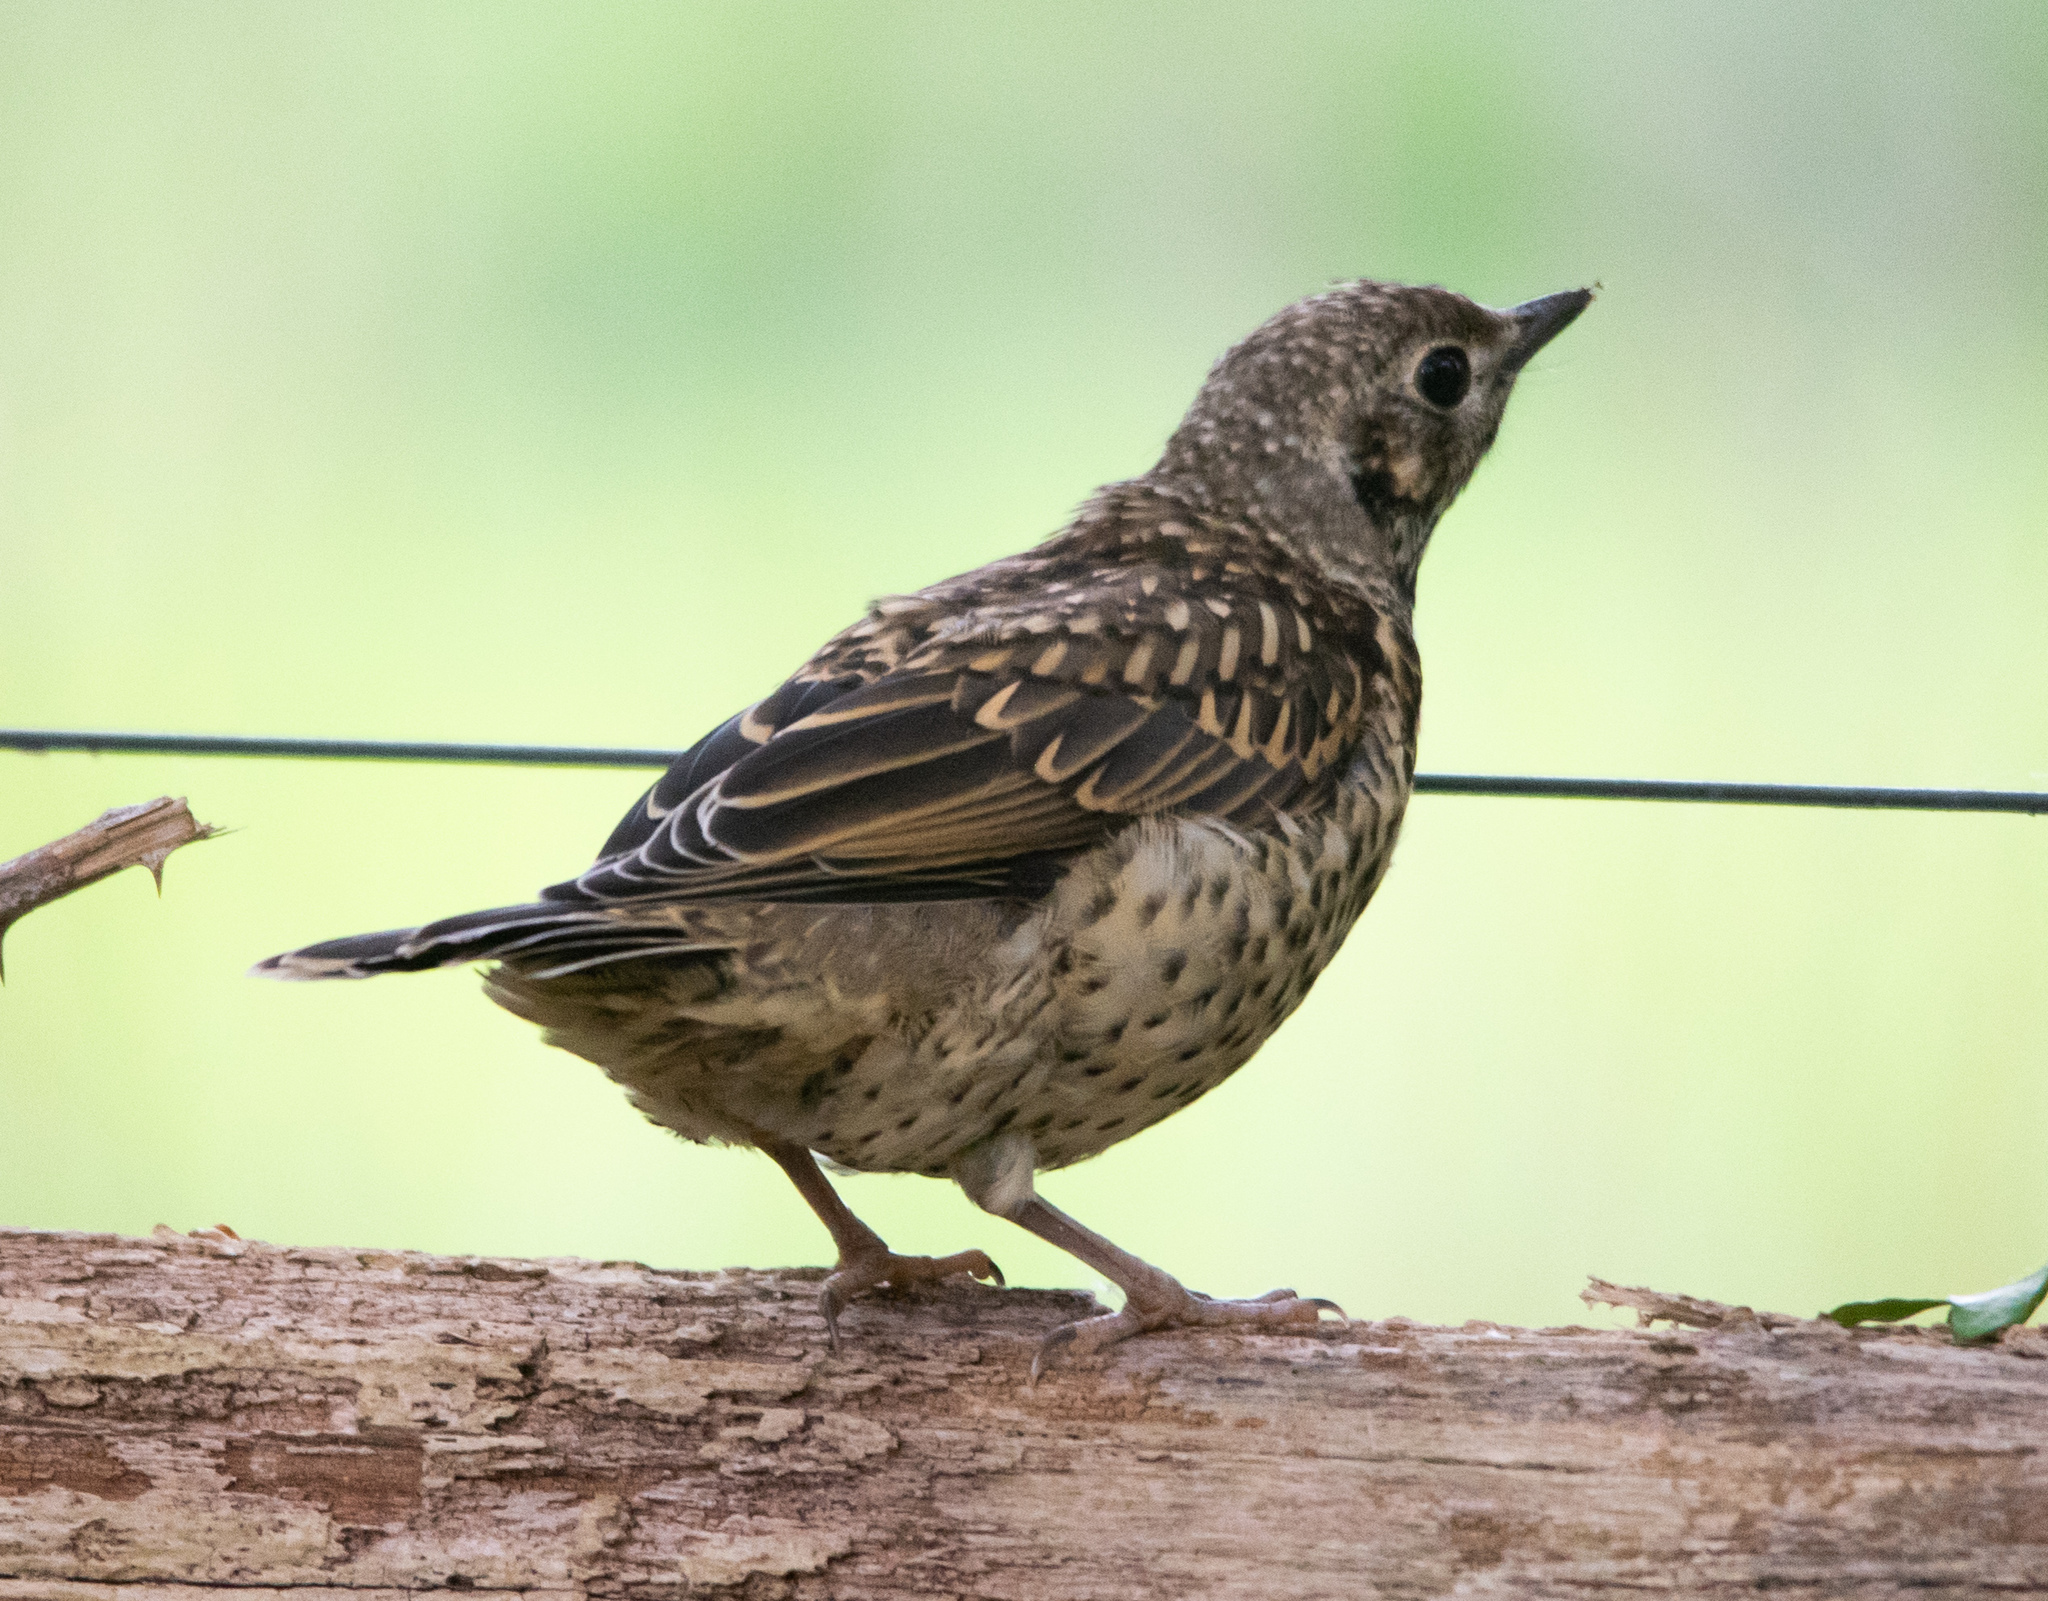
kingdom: Animalia
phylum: Chordata
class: Aves
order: Passeriformes
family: Turdidae
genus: Turdus
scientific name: Turdus viscivorus
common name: Mistle thrush
